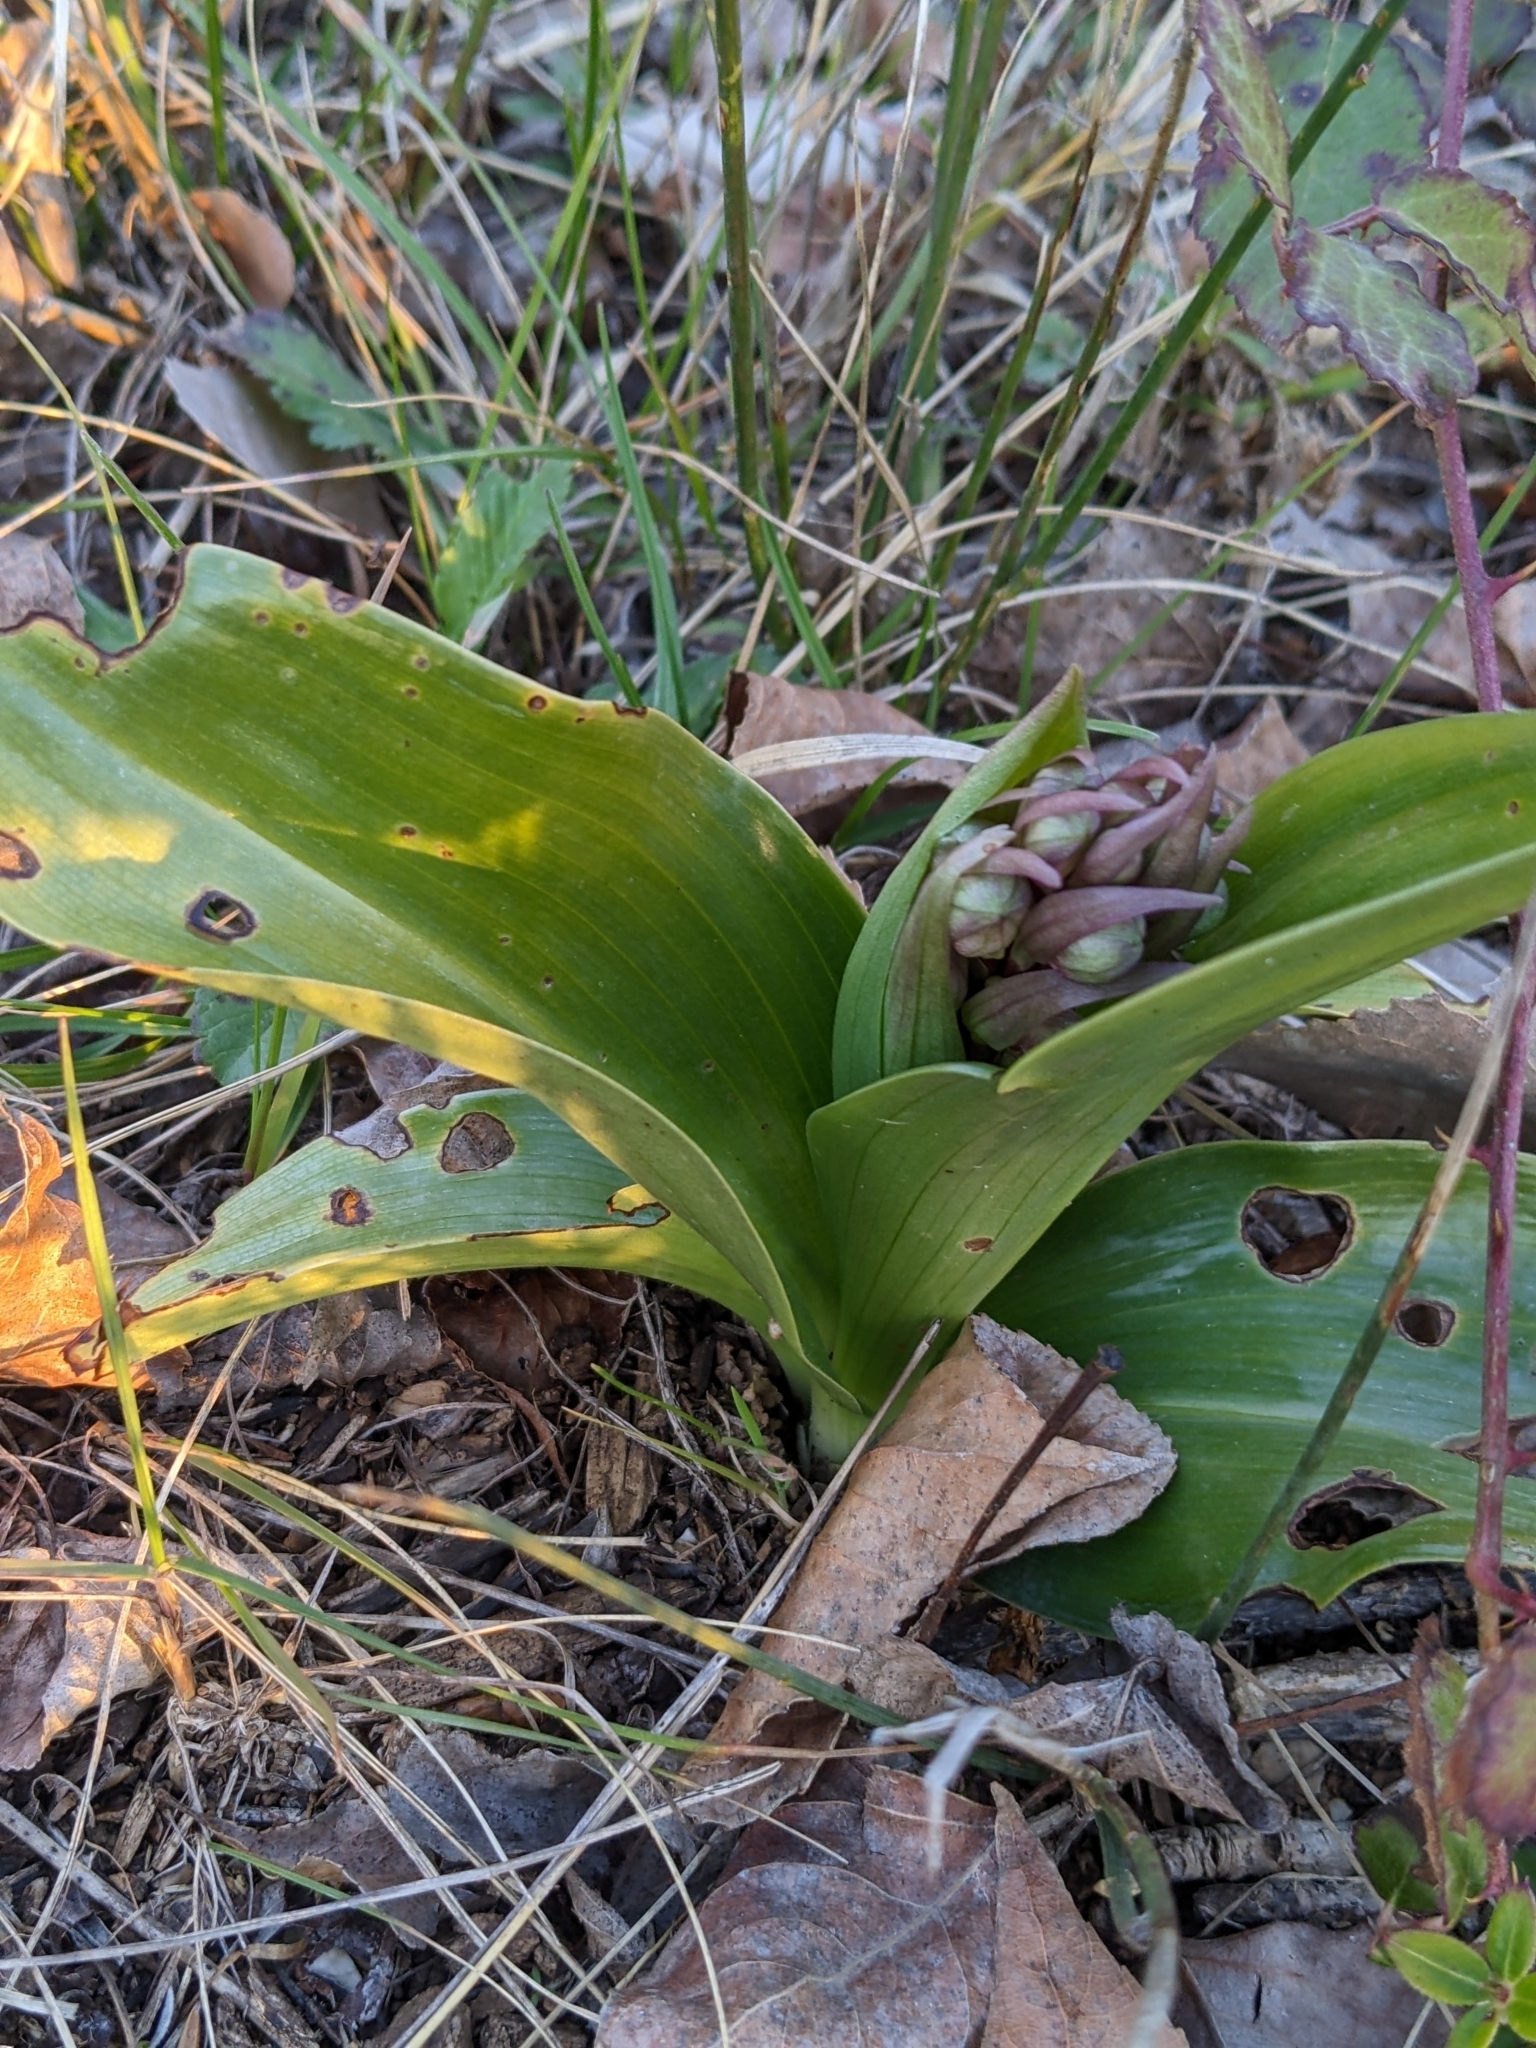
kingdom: Plantae
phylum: Tracheophyta
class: Liliopsida
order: Asparagales
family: Orchidaceae
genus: Himantoglossum
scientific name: Himantoglossum robertianum
